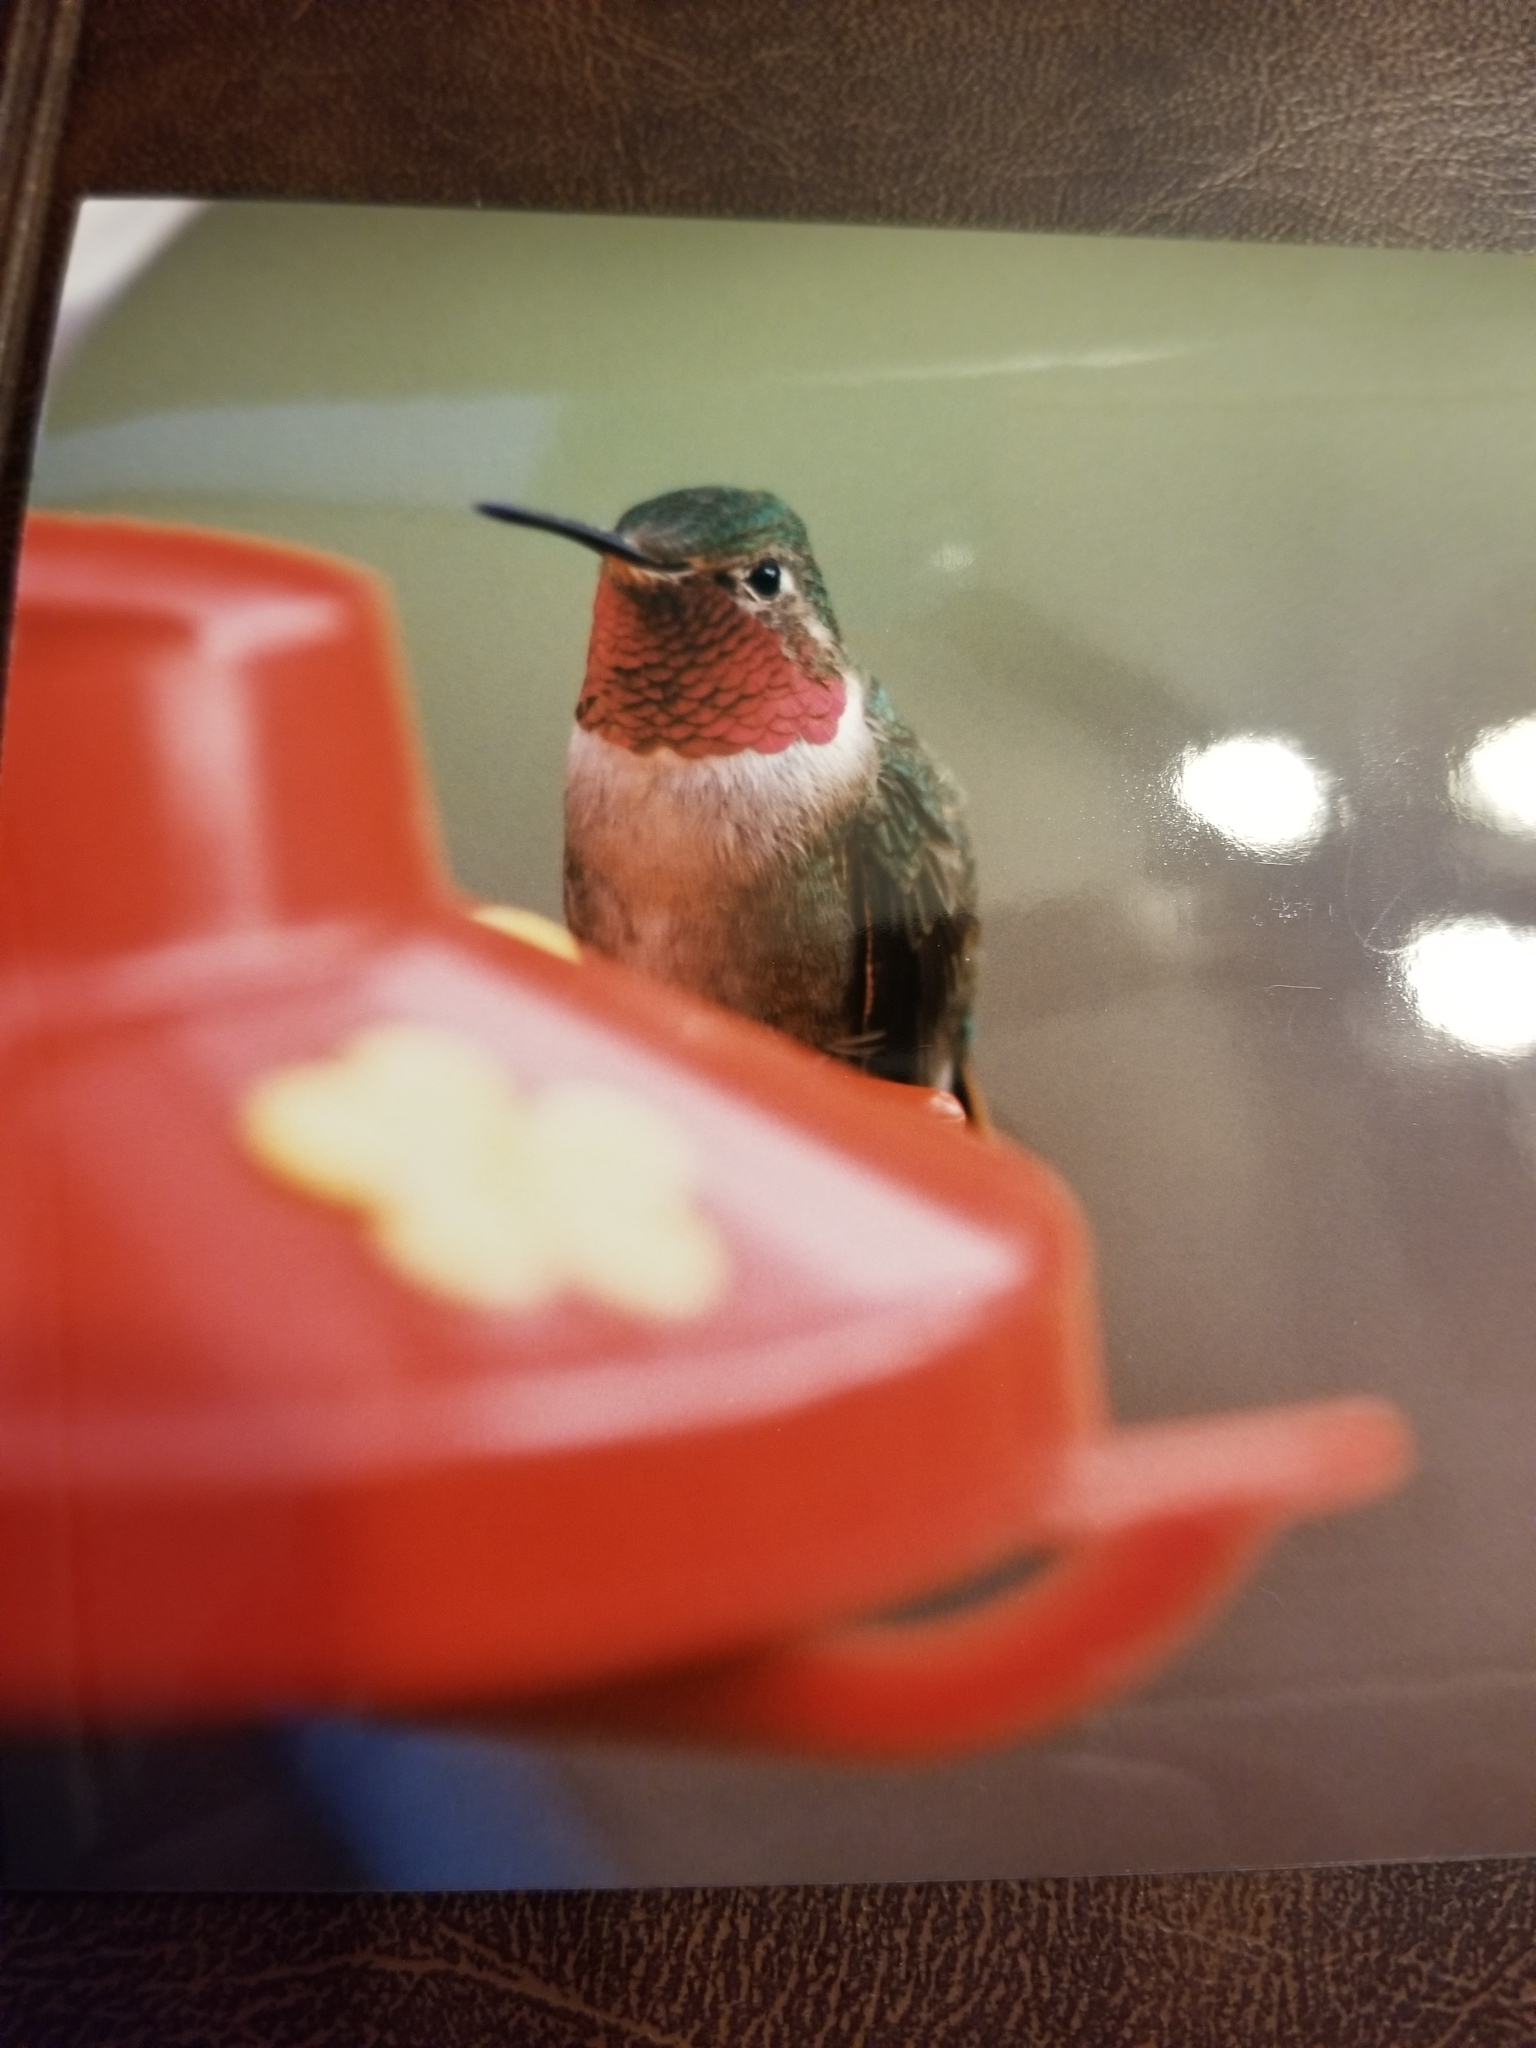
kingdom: Animalia
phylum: Chordata
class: Aves
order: Apodiformes
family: Trochilidae
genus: Selasphorus
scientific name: Selasphorus platycercus
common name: Broad-tailed hummingbird
